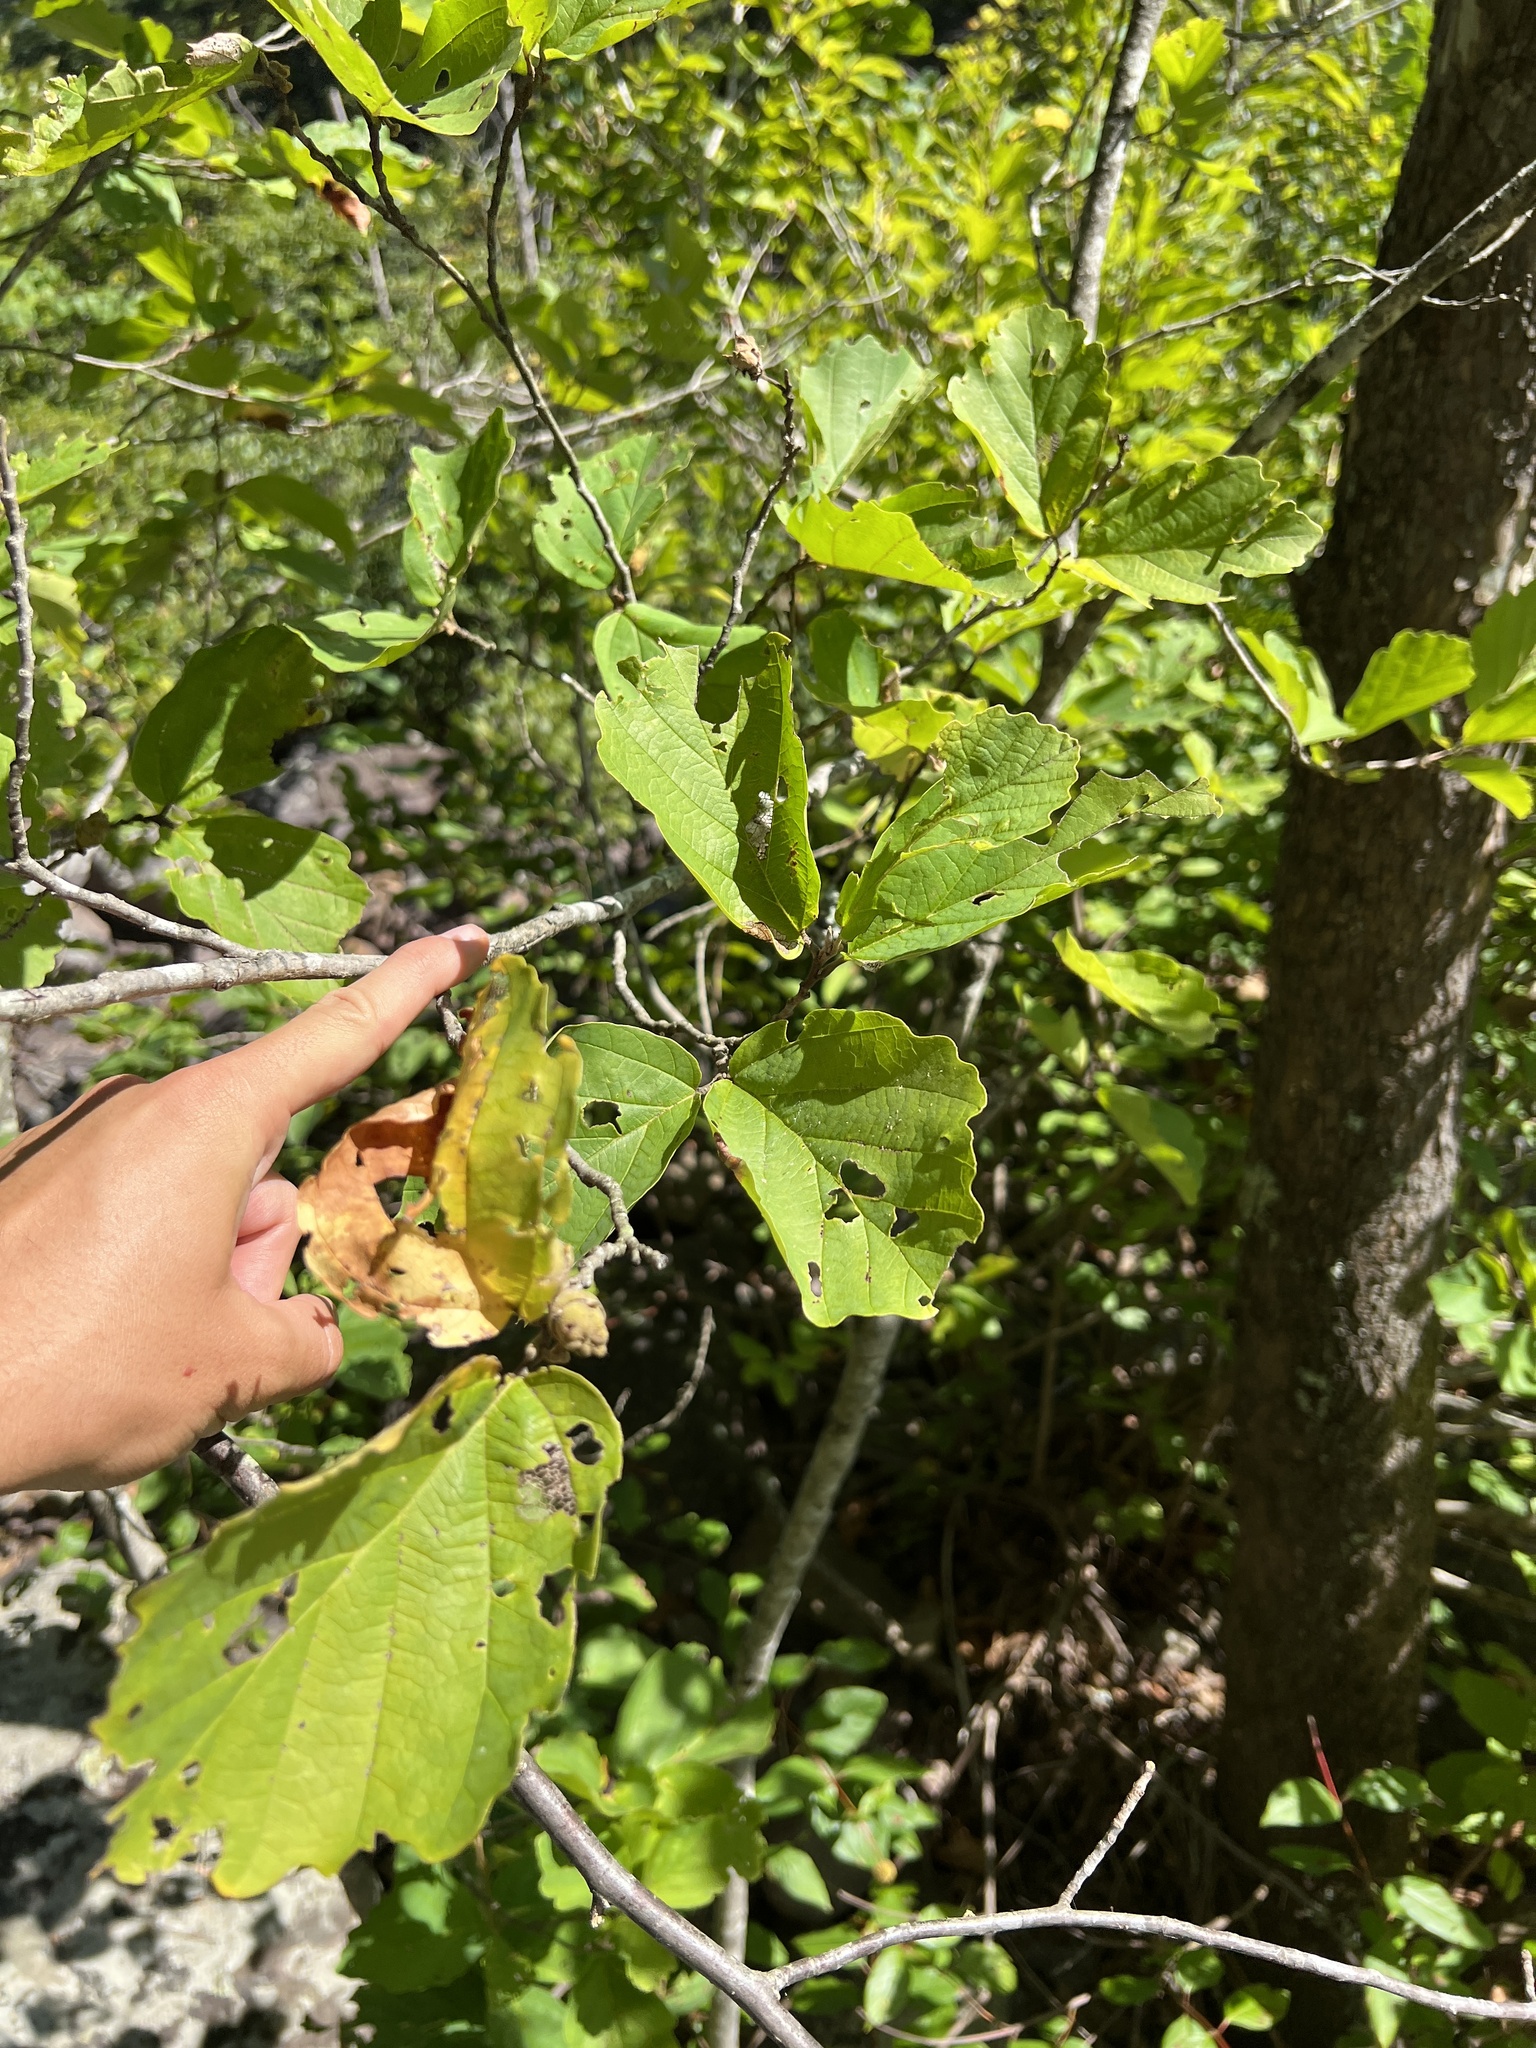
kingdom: Plantae
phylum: Tracheophyta
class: Magnoliopsida
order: Saxifragales
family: Hamamelidaceae
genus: Hamamelis
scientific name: Hamamelis vernalis
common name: Ozark witch-hazel
